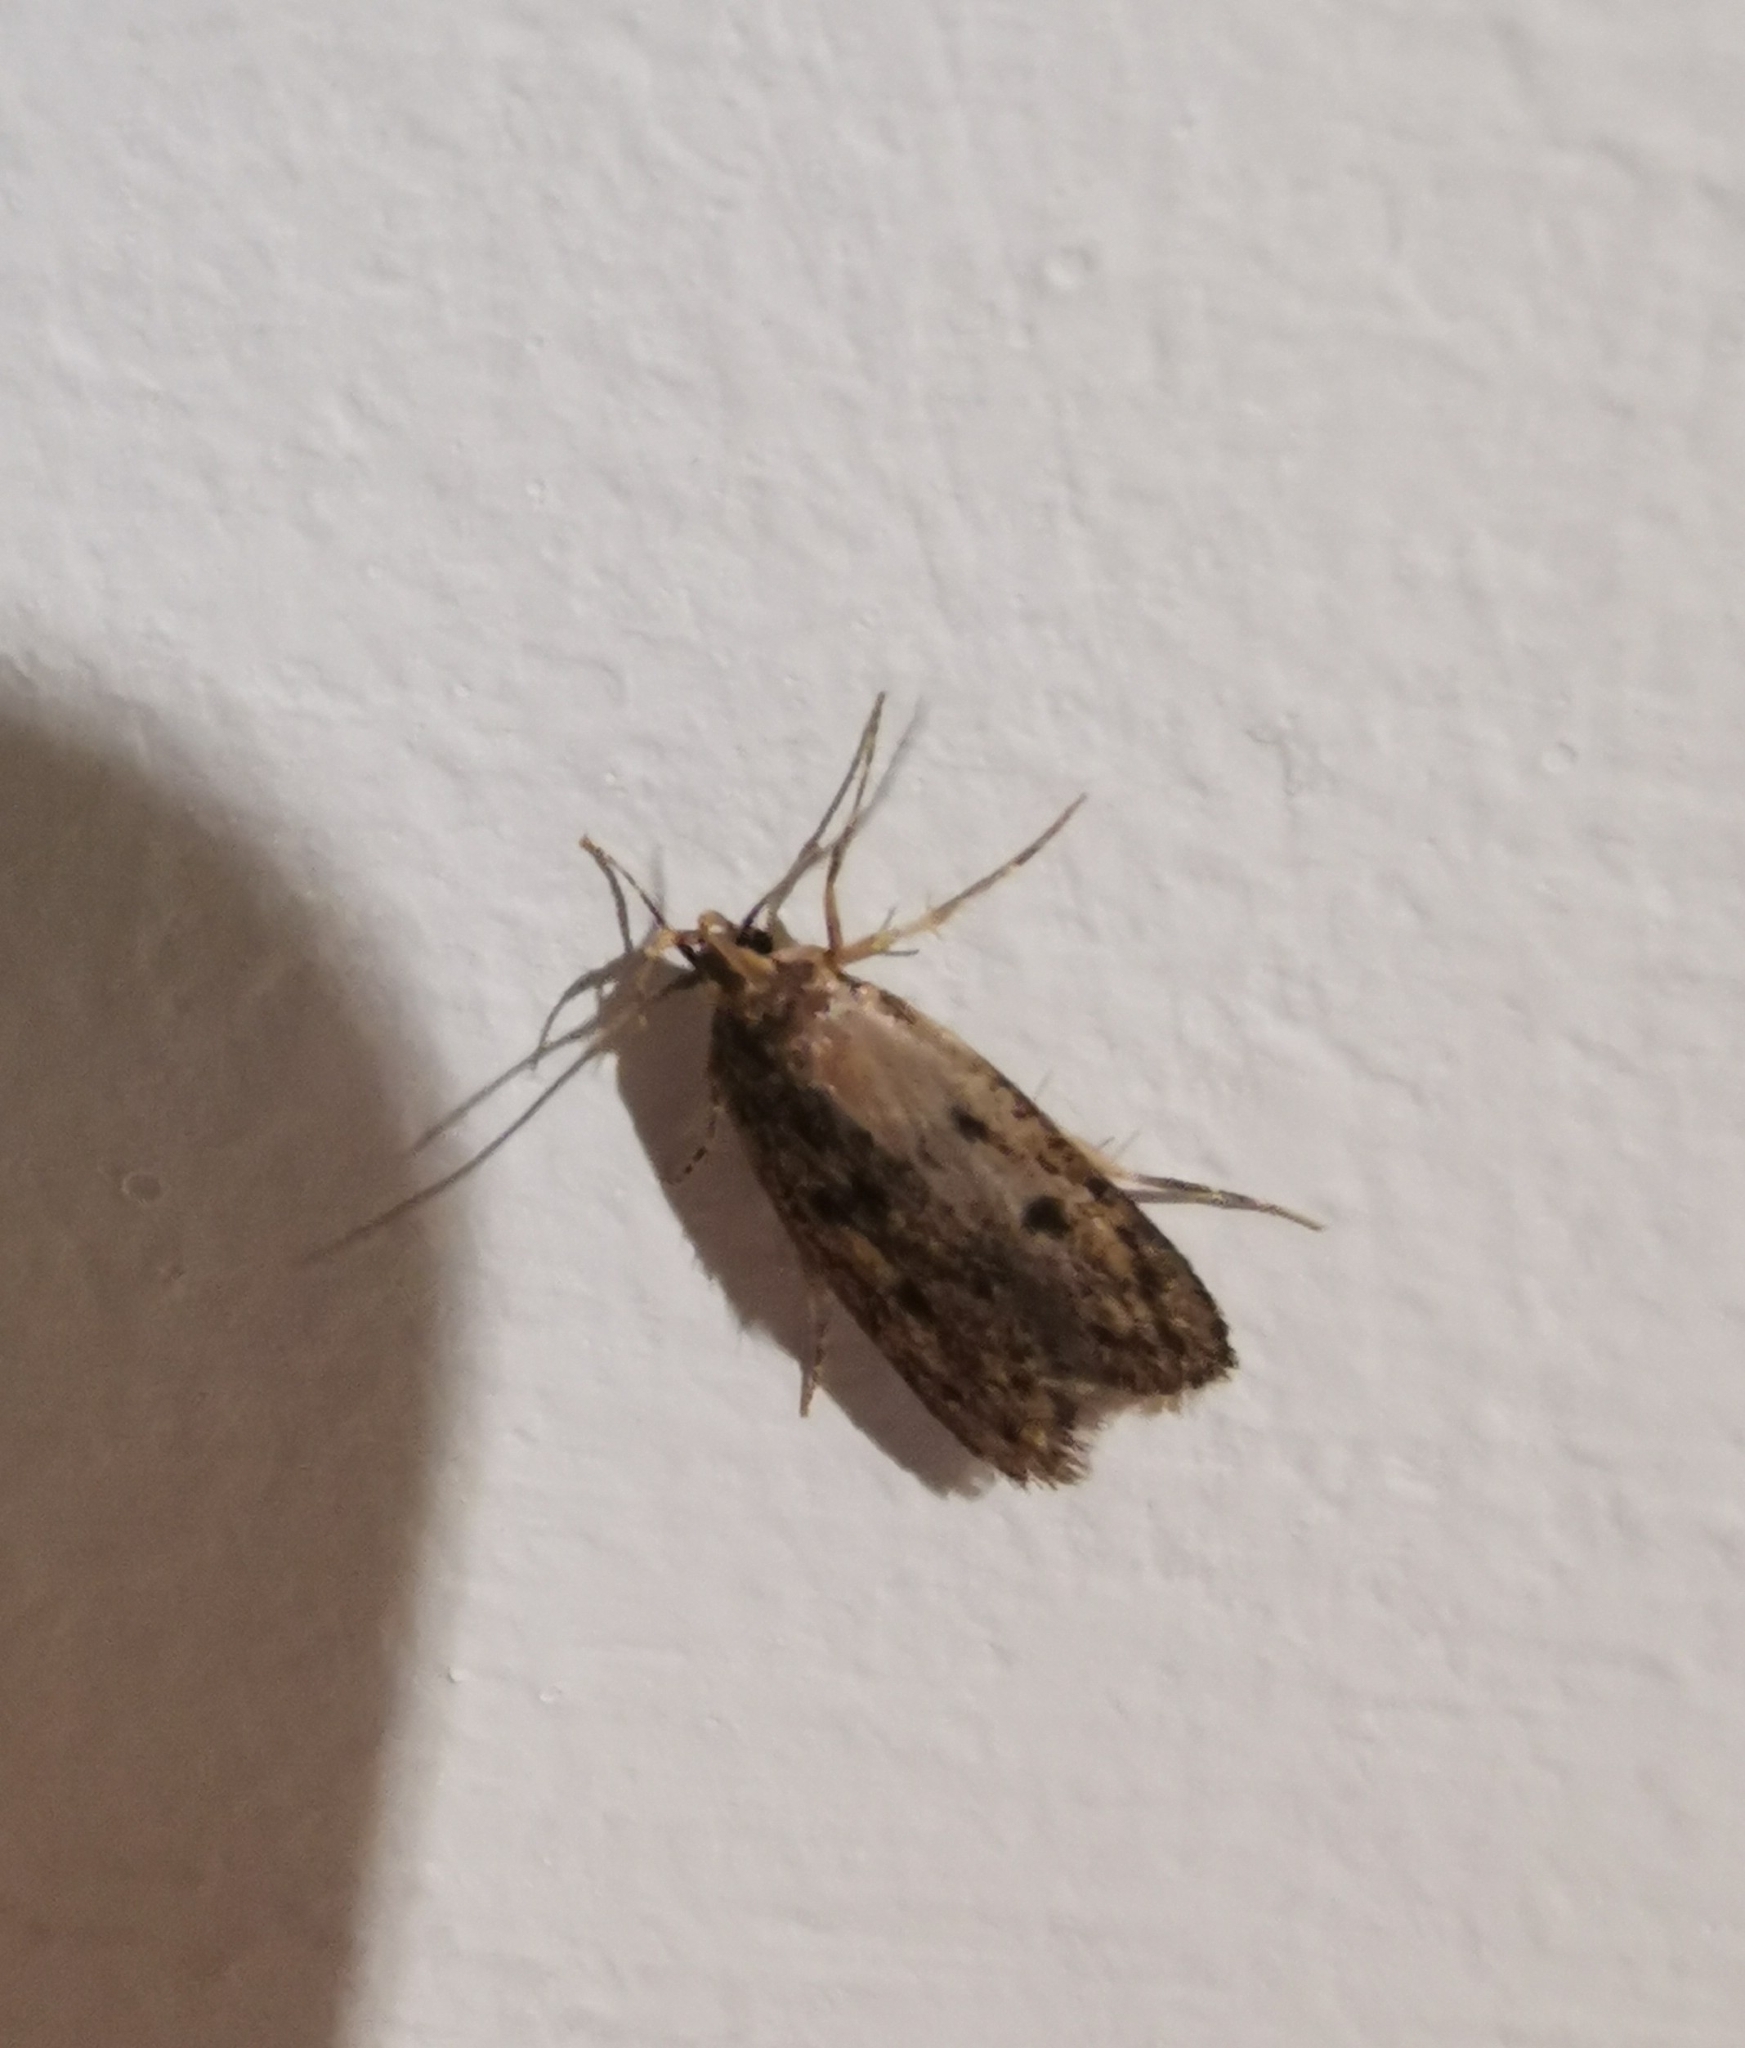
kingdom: Animalia
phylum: Arthropoda
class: Insecta
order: Lepidoptera
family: Oecophoridae
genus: Hofmannophila
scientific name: Hofmannophila pseudospretella
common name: Brown house moth
